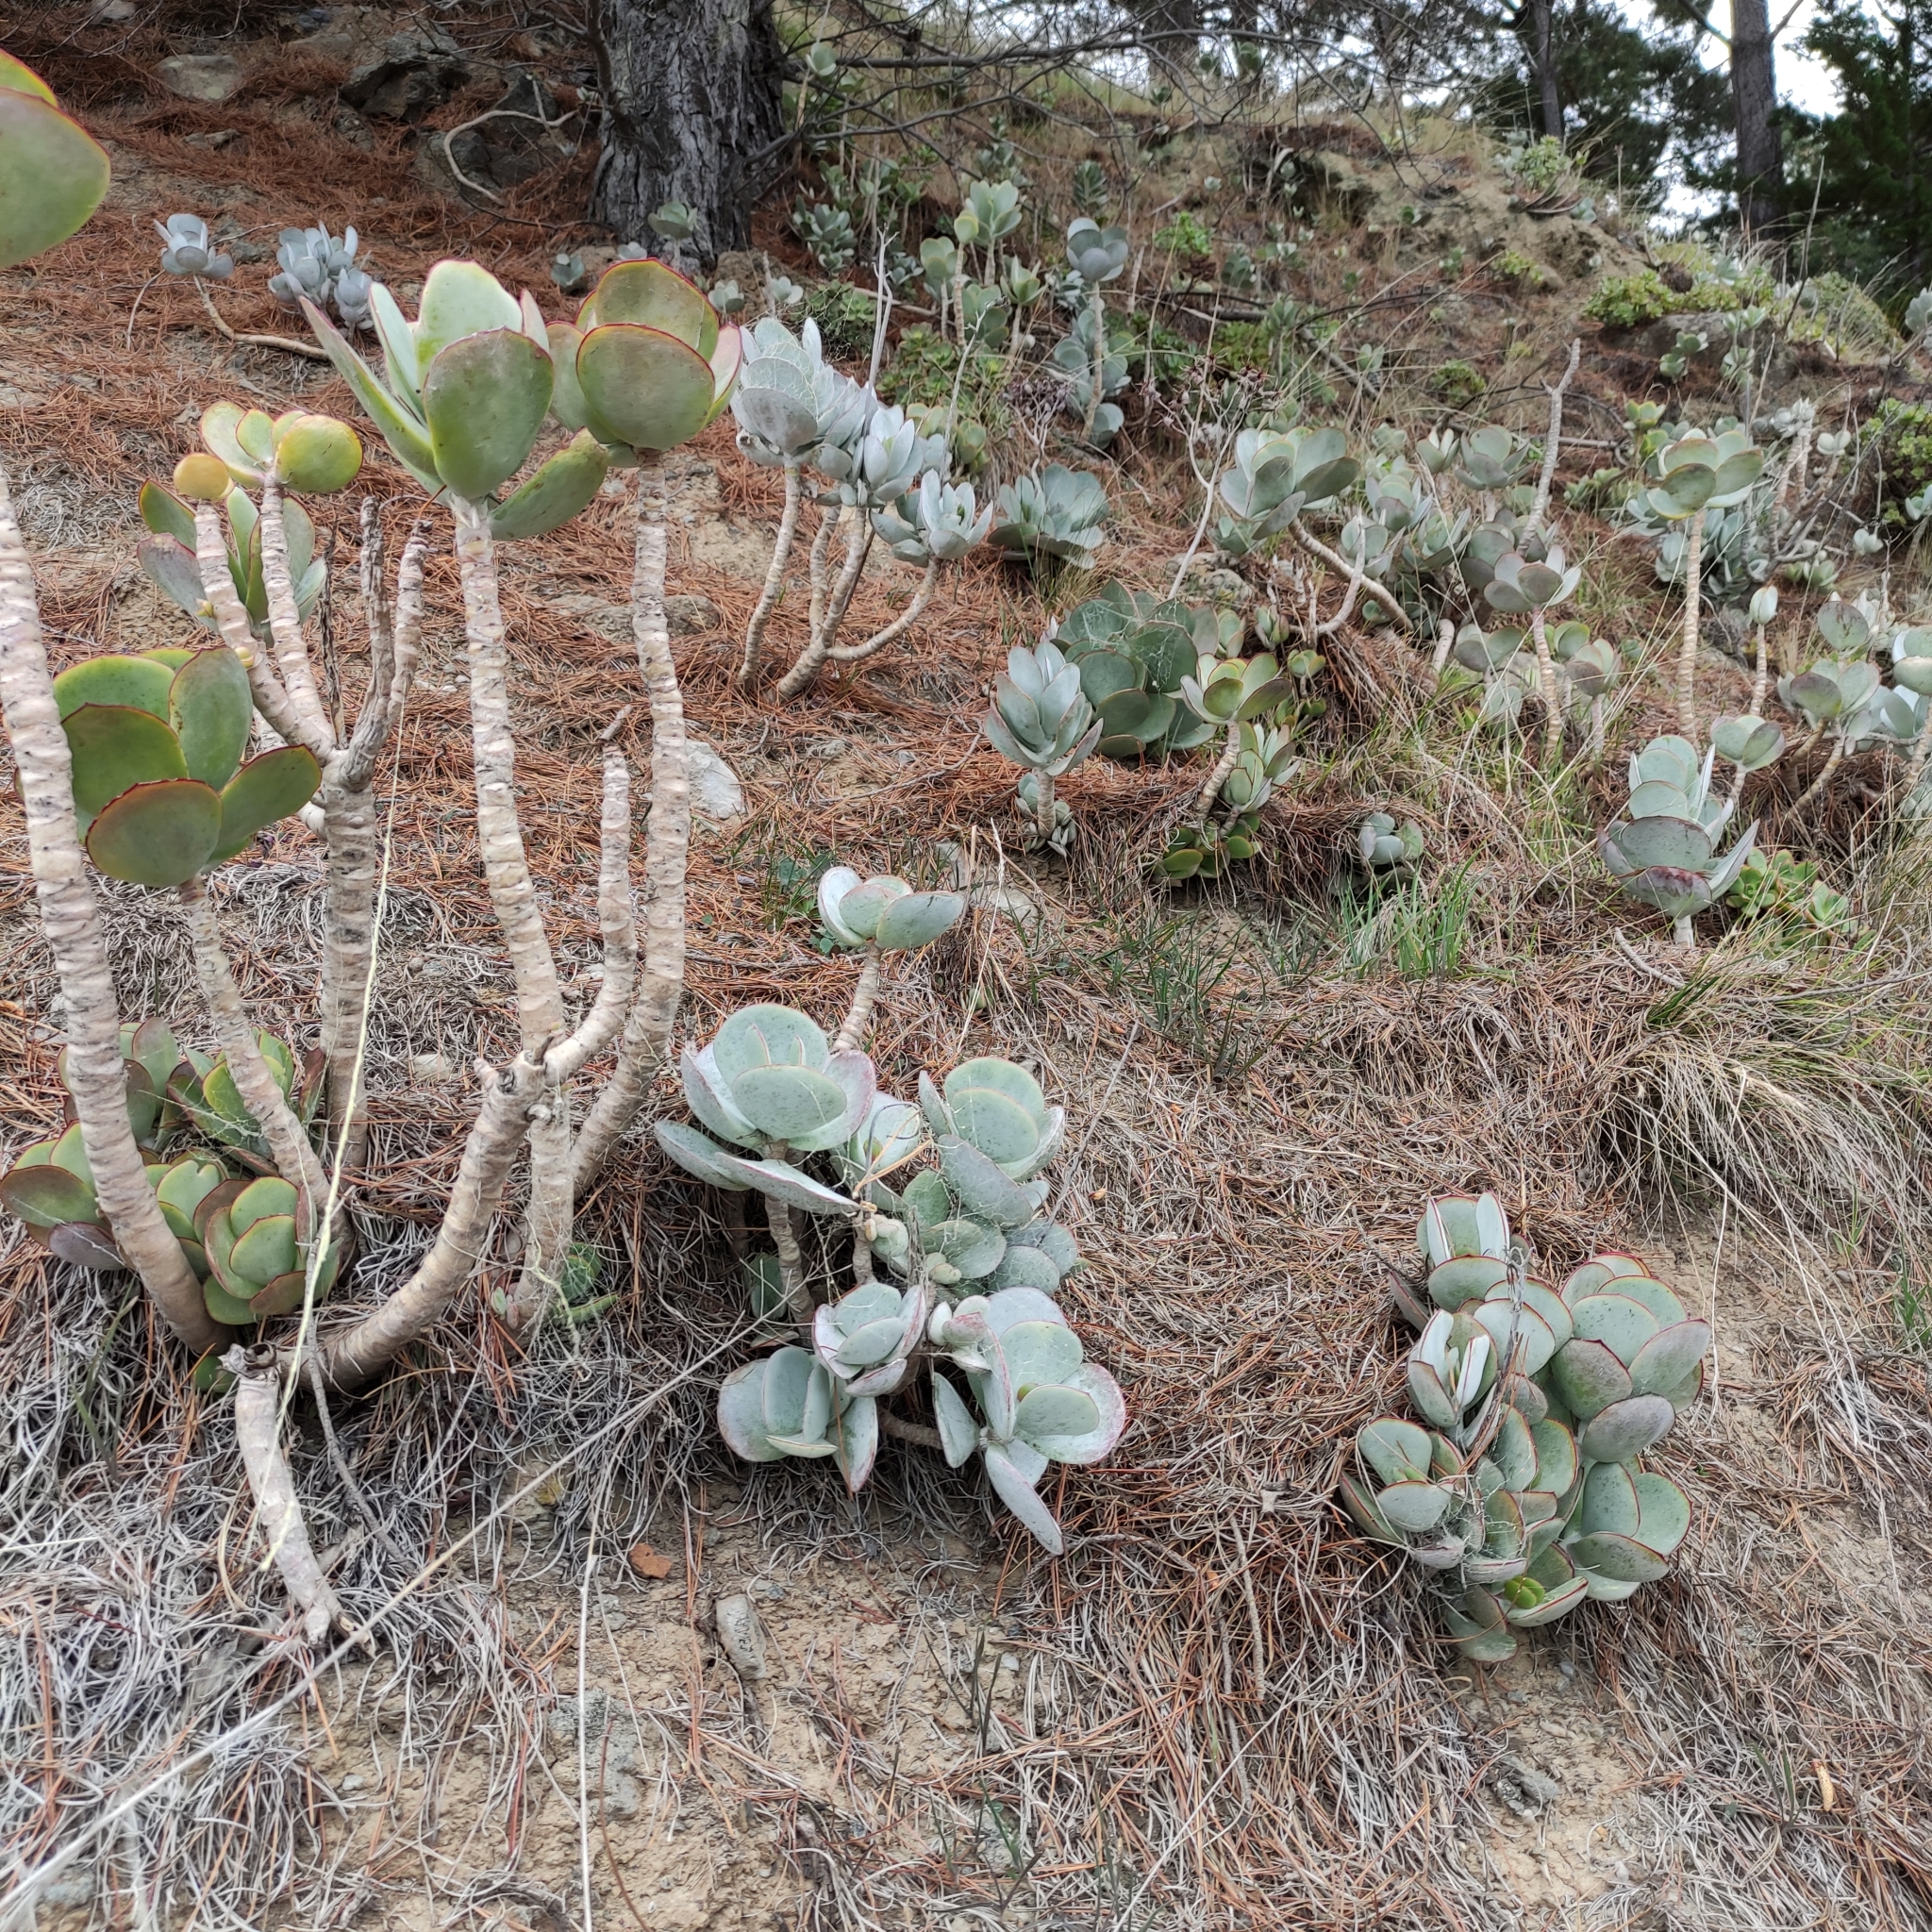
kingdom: Plantae
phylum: Tracheophyta
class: Magnoliopsida
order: Saxifragales
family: Crassulaceae
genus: Cotyledon
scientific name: Cotyledon orbiculata
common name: Pig's ear
